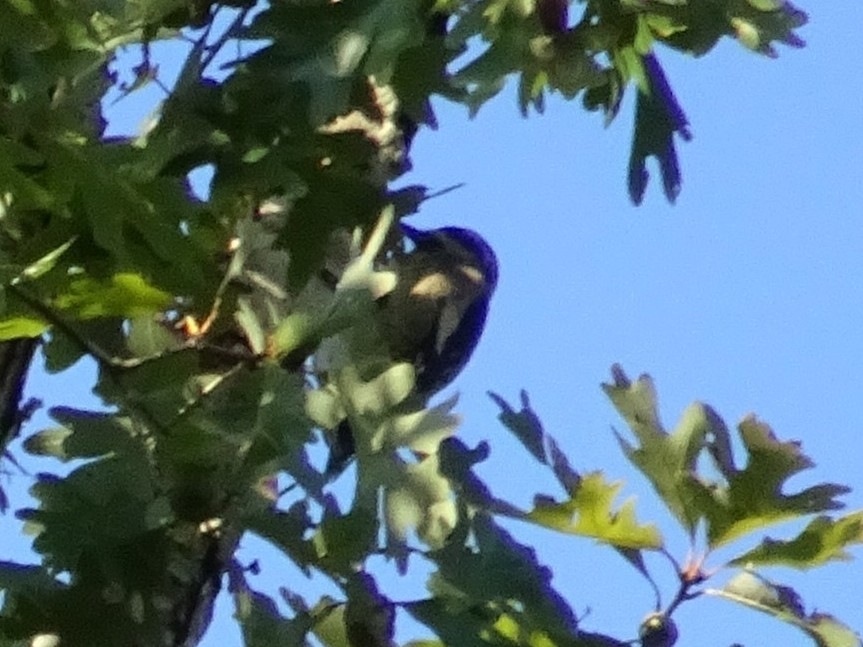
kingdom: Animalia
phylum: Chordata
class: Aves
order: Piciformes
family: Picidae
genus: Sphyrapicus
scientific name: Sphyrapicus varius
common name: Yellow-bellied sapsucker
